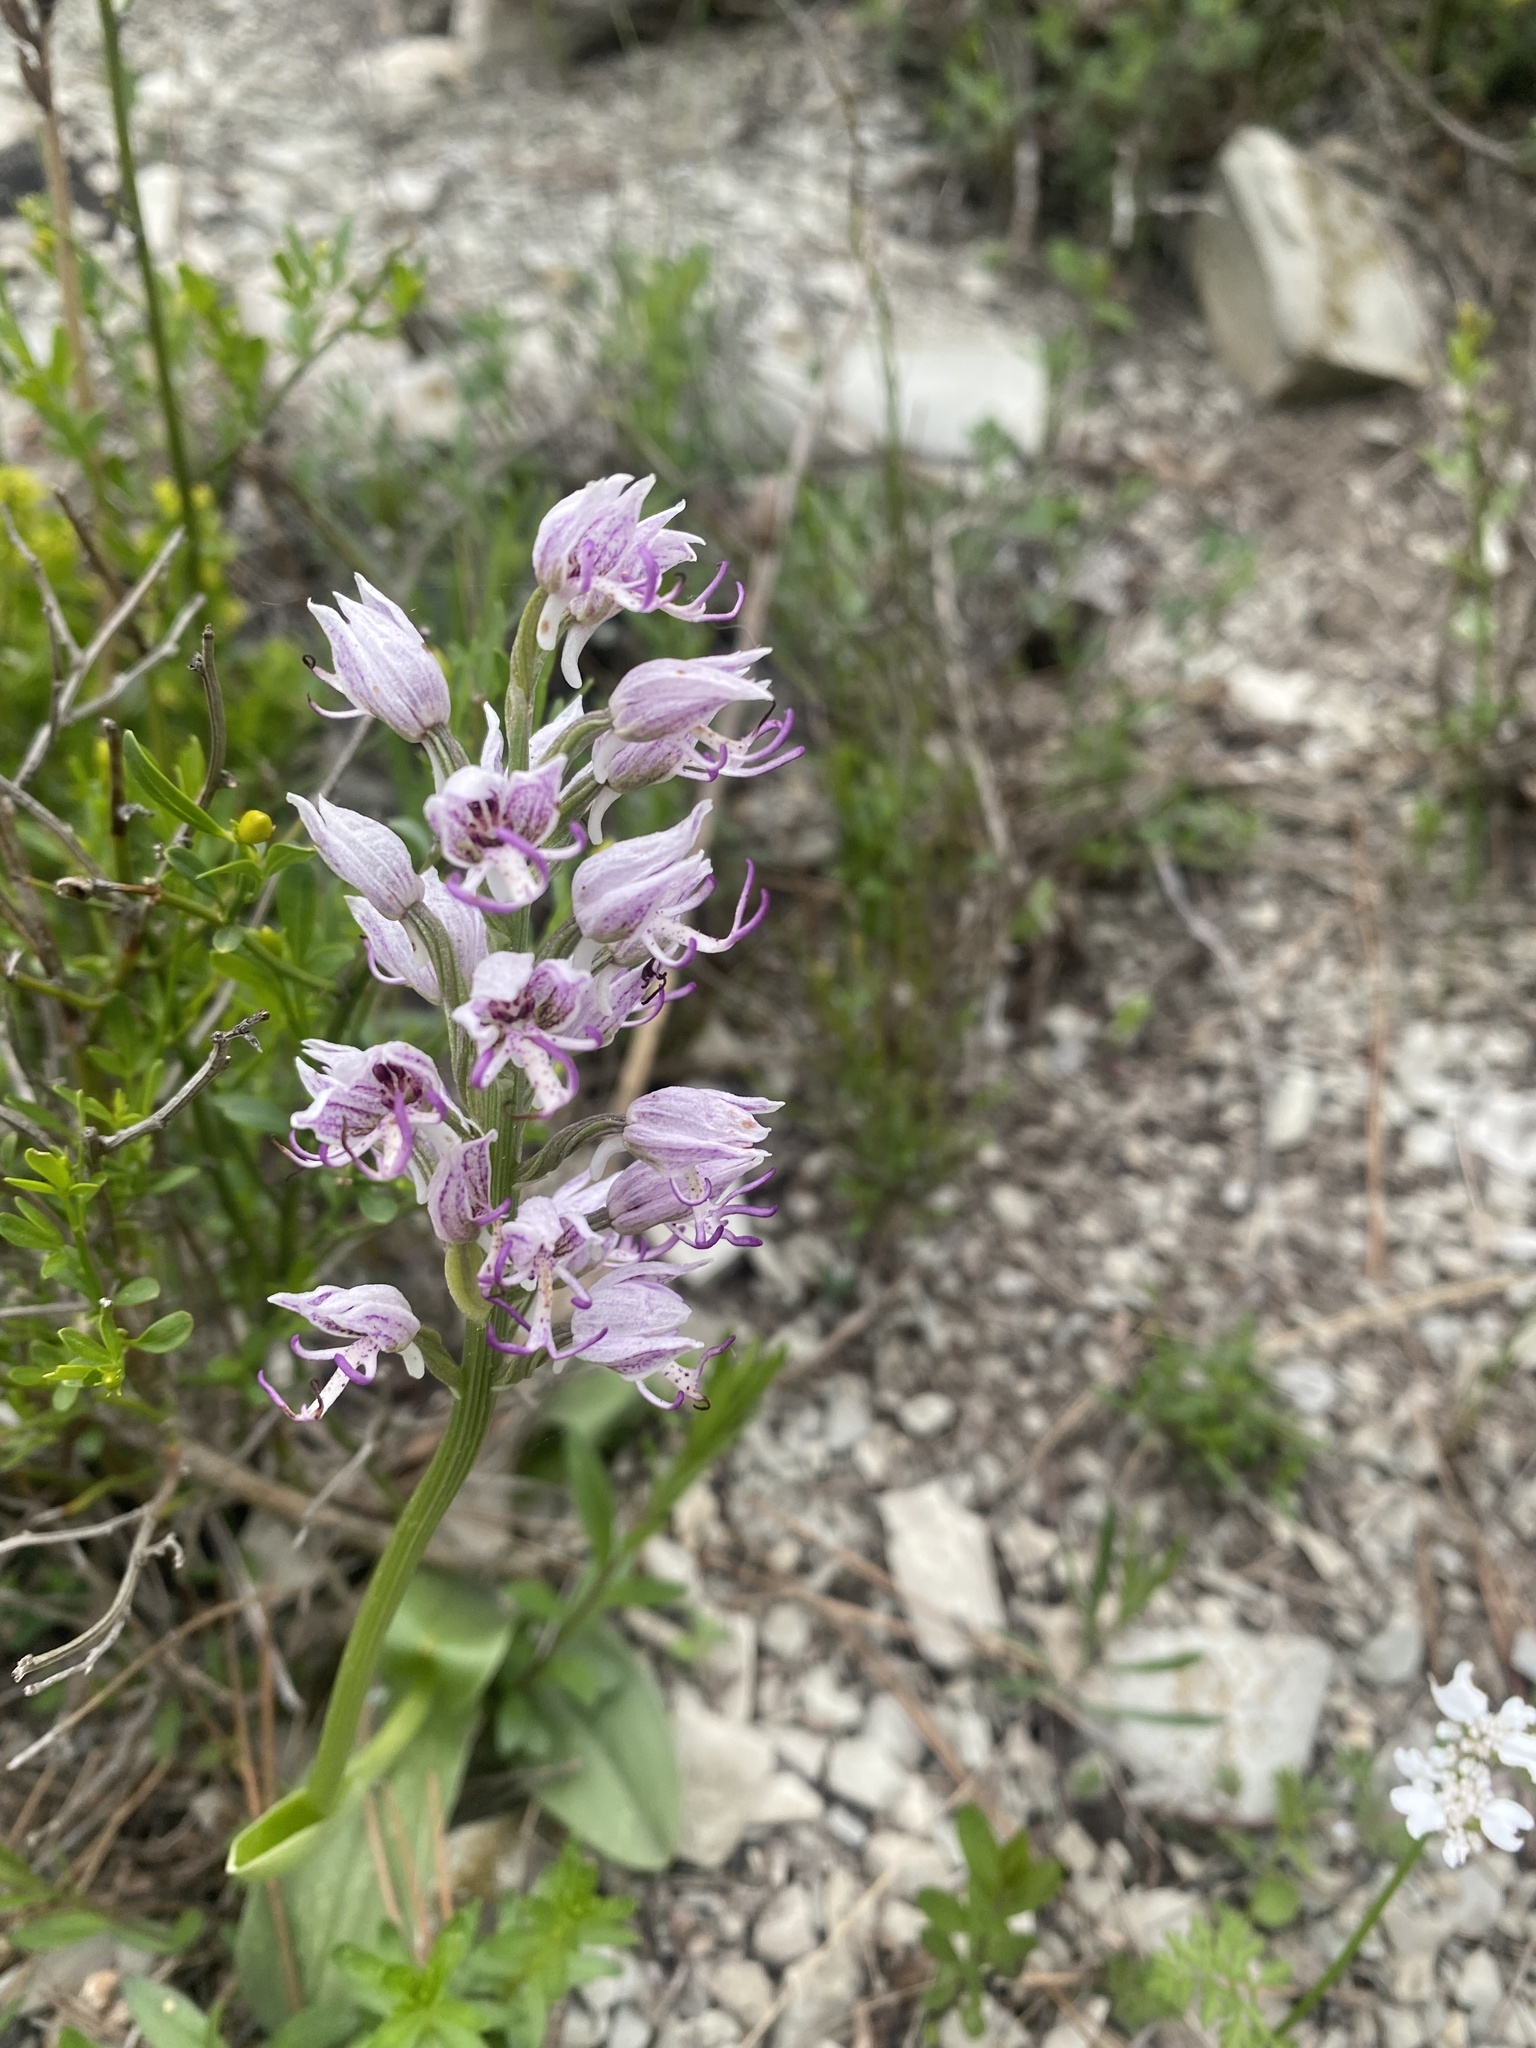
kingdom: Plantae
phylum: Tracheophyta
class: Liliopsida
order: Asparagales
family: Orchidaceae
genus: Orchis
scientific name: Orchis simia
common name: Monkey orchid
